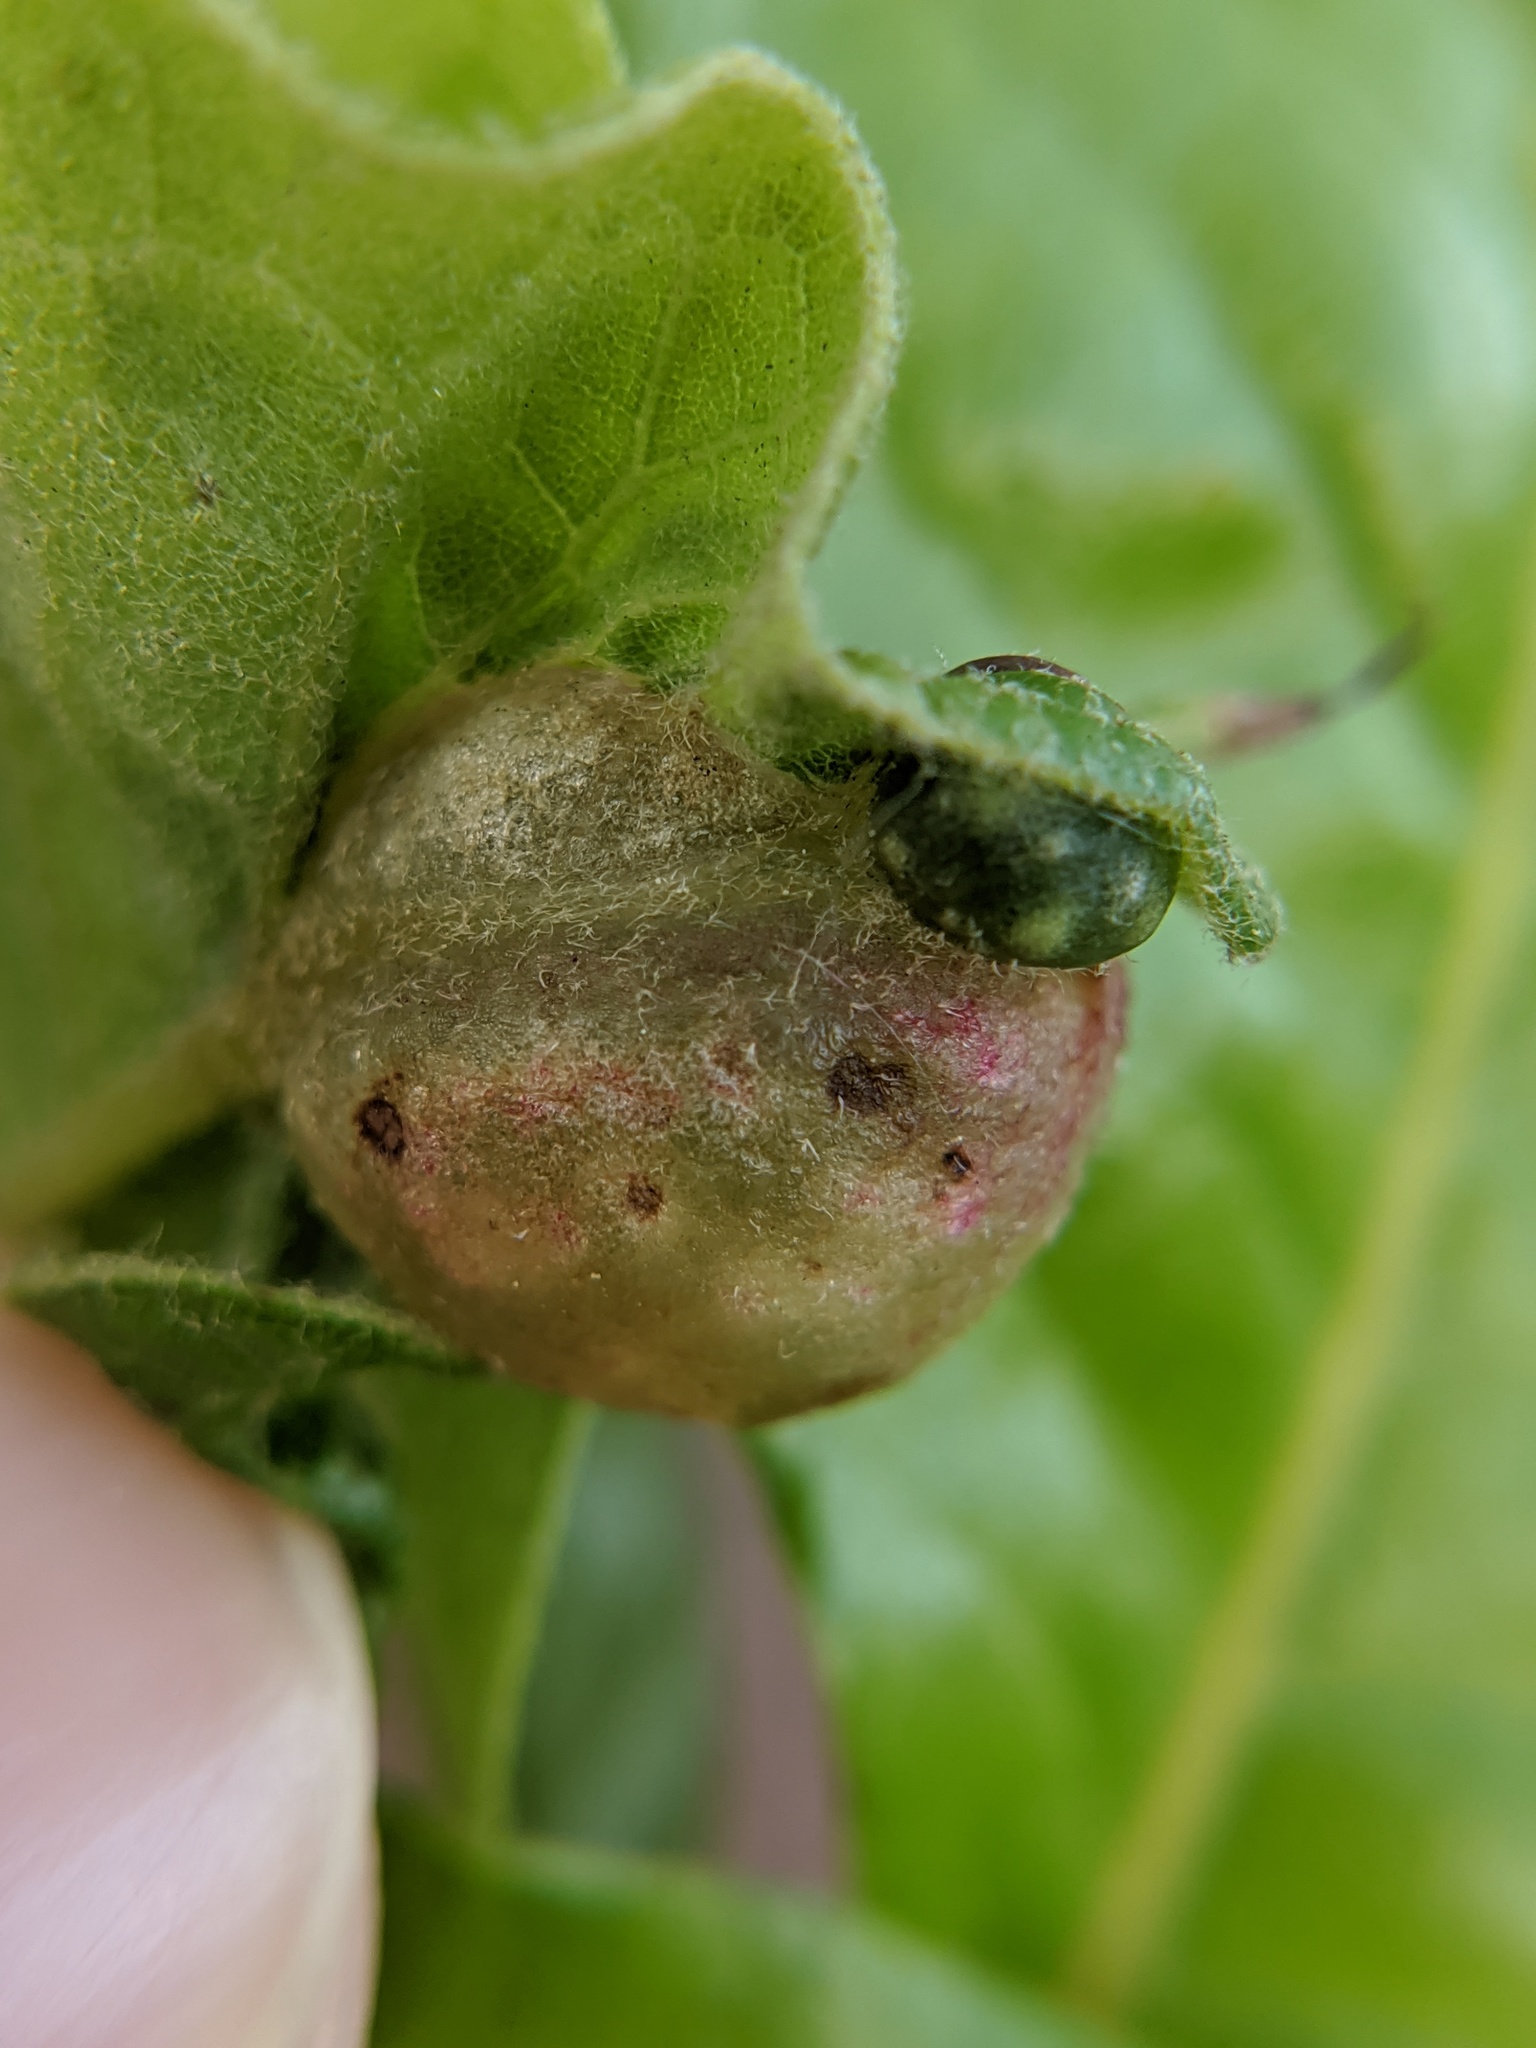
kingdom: Animalia
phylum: Arthropoda
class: Insecta
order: Hymenoptera
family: Cynipidae
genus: Dryocosmus
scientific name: Dryocosmus quercuspalustris
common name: Succulent oak gall wasp
